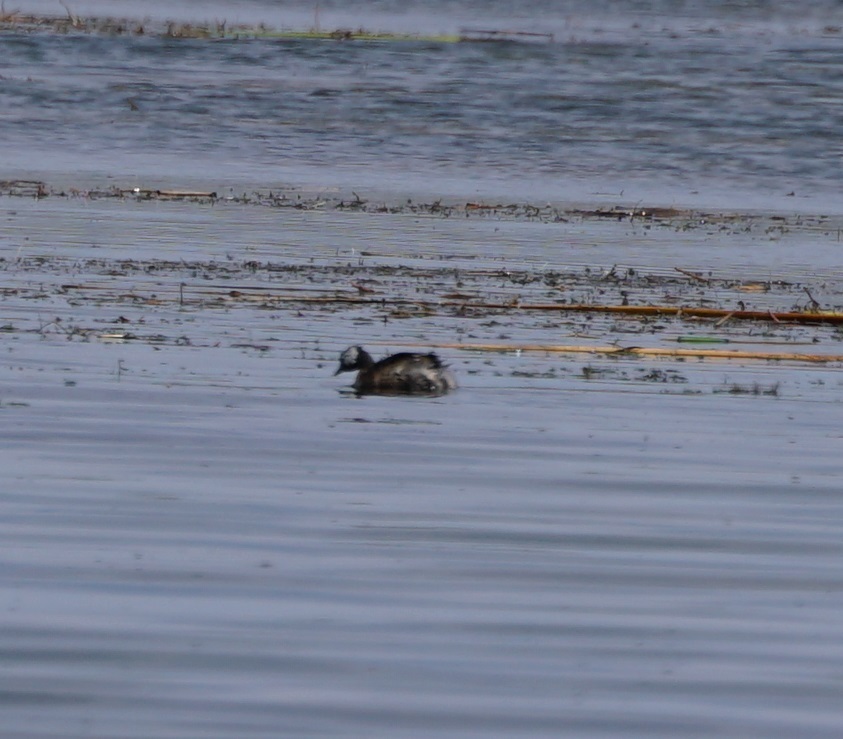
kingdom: Animalia
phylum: Chordata
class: Aves
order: Podicipediformes
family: Podicipedidae
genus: Rollandia
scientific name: Rollandia rolland
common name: White-tufted grebe
